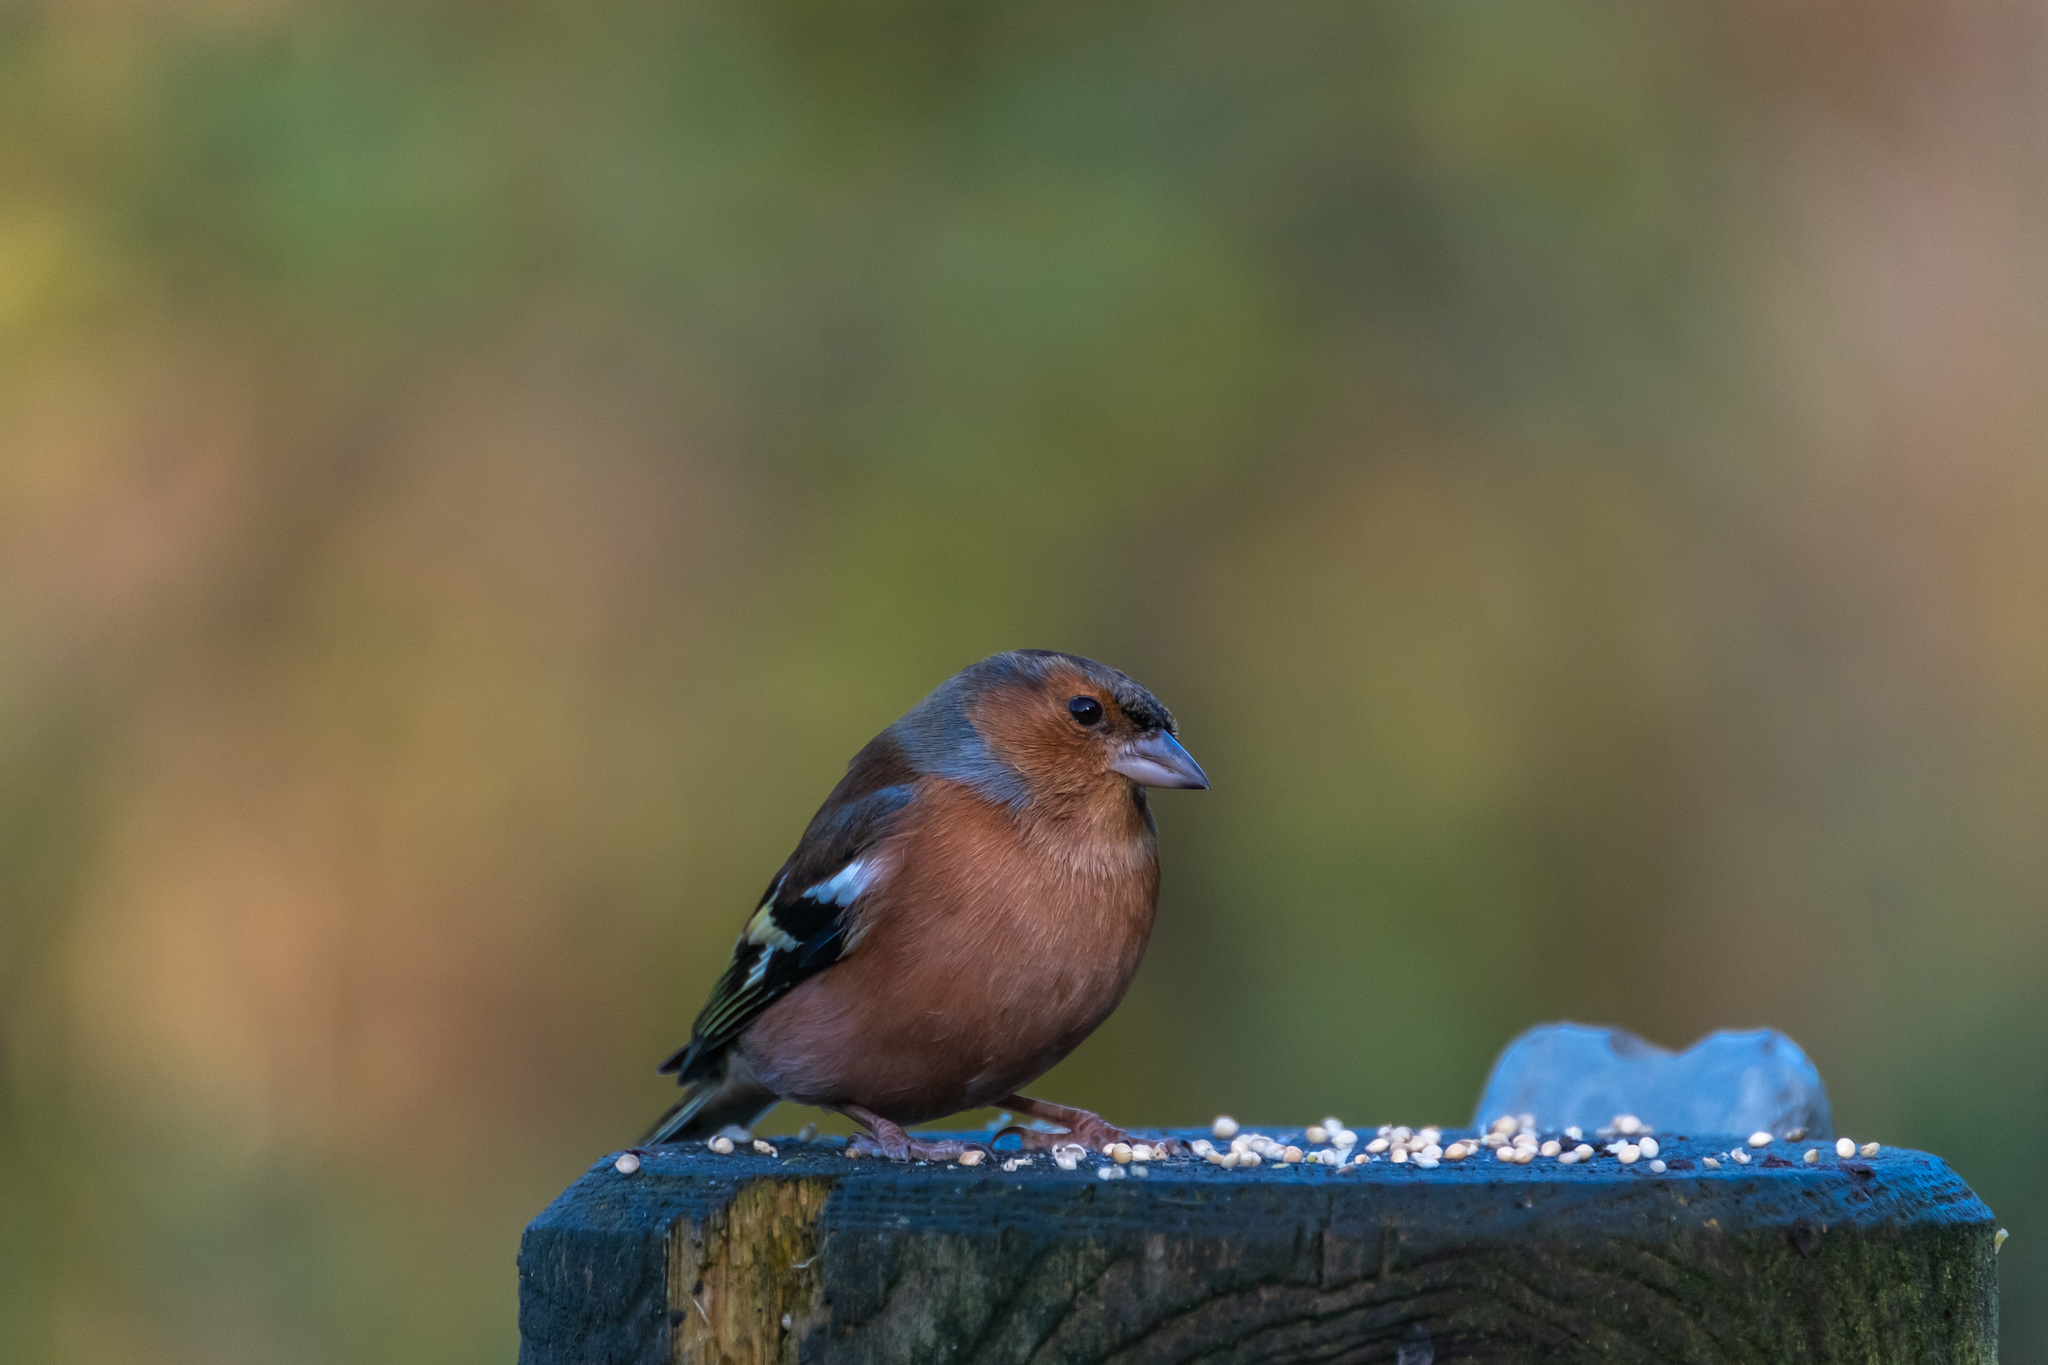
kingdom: Animalia
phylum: Chordata
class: Aves
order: Passeriformes
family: Fringillidae
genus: Fringilla
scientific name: Fringilla coelebs
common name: Common chaffinch
